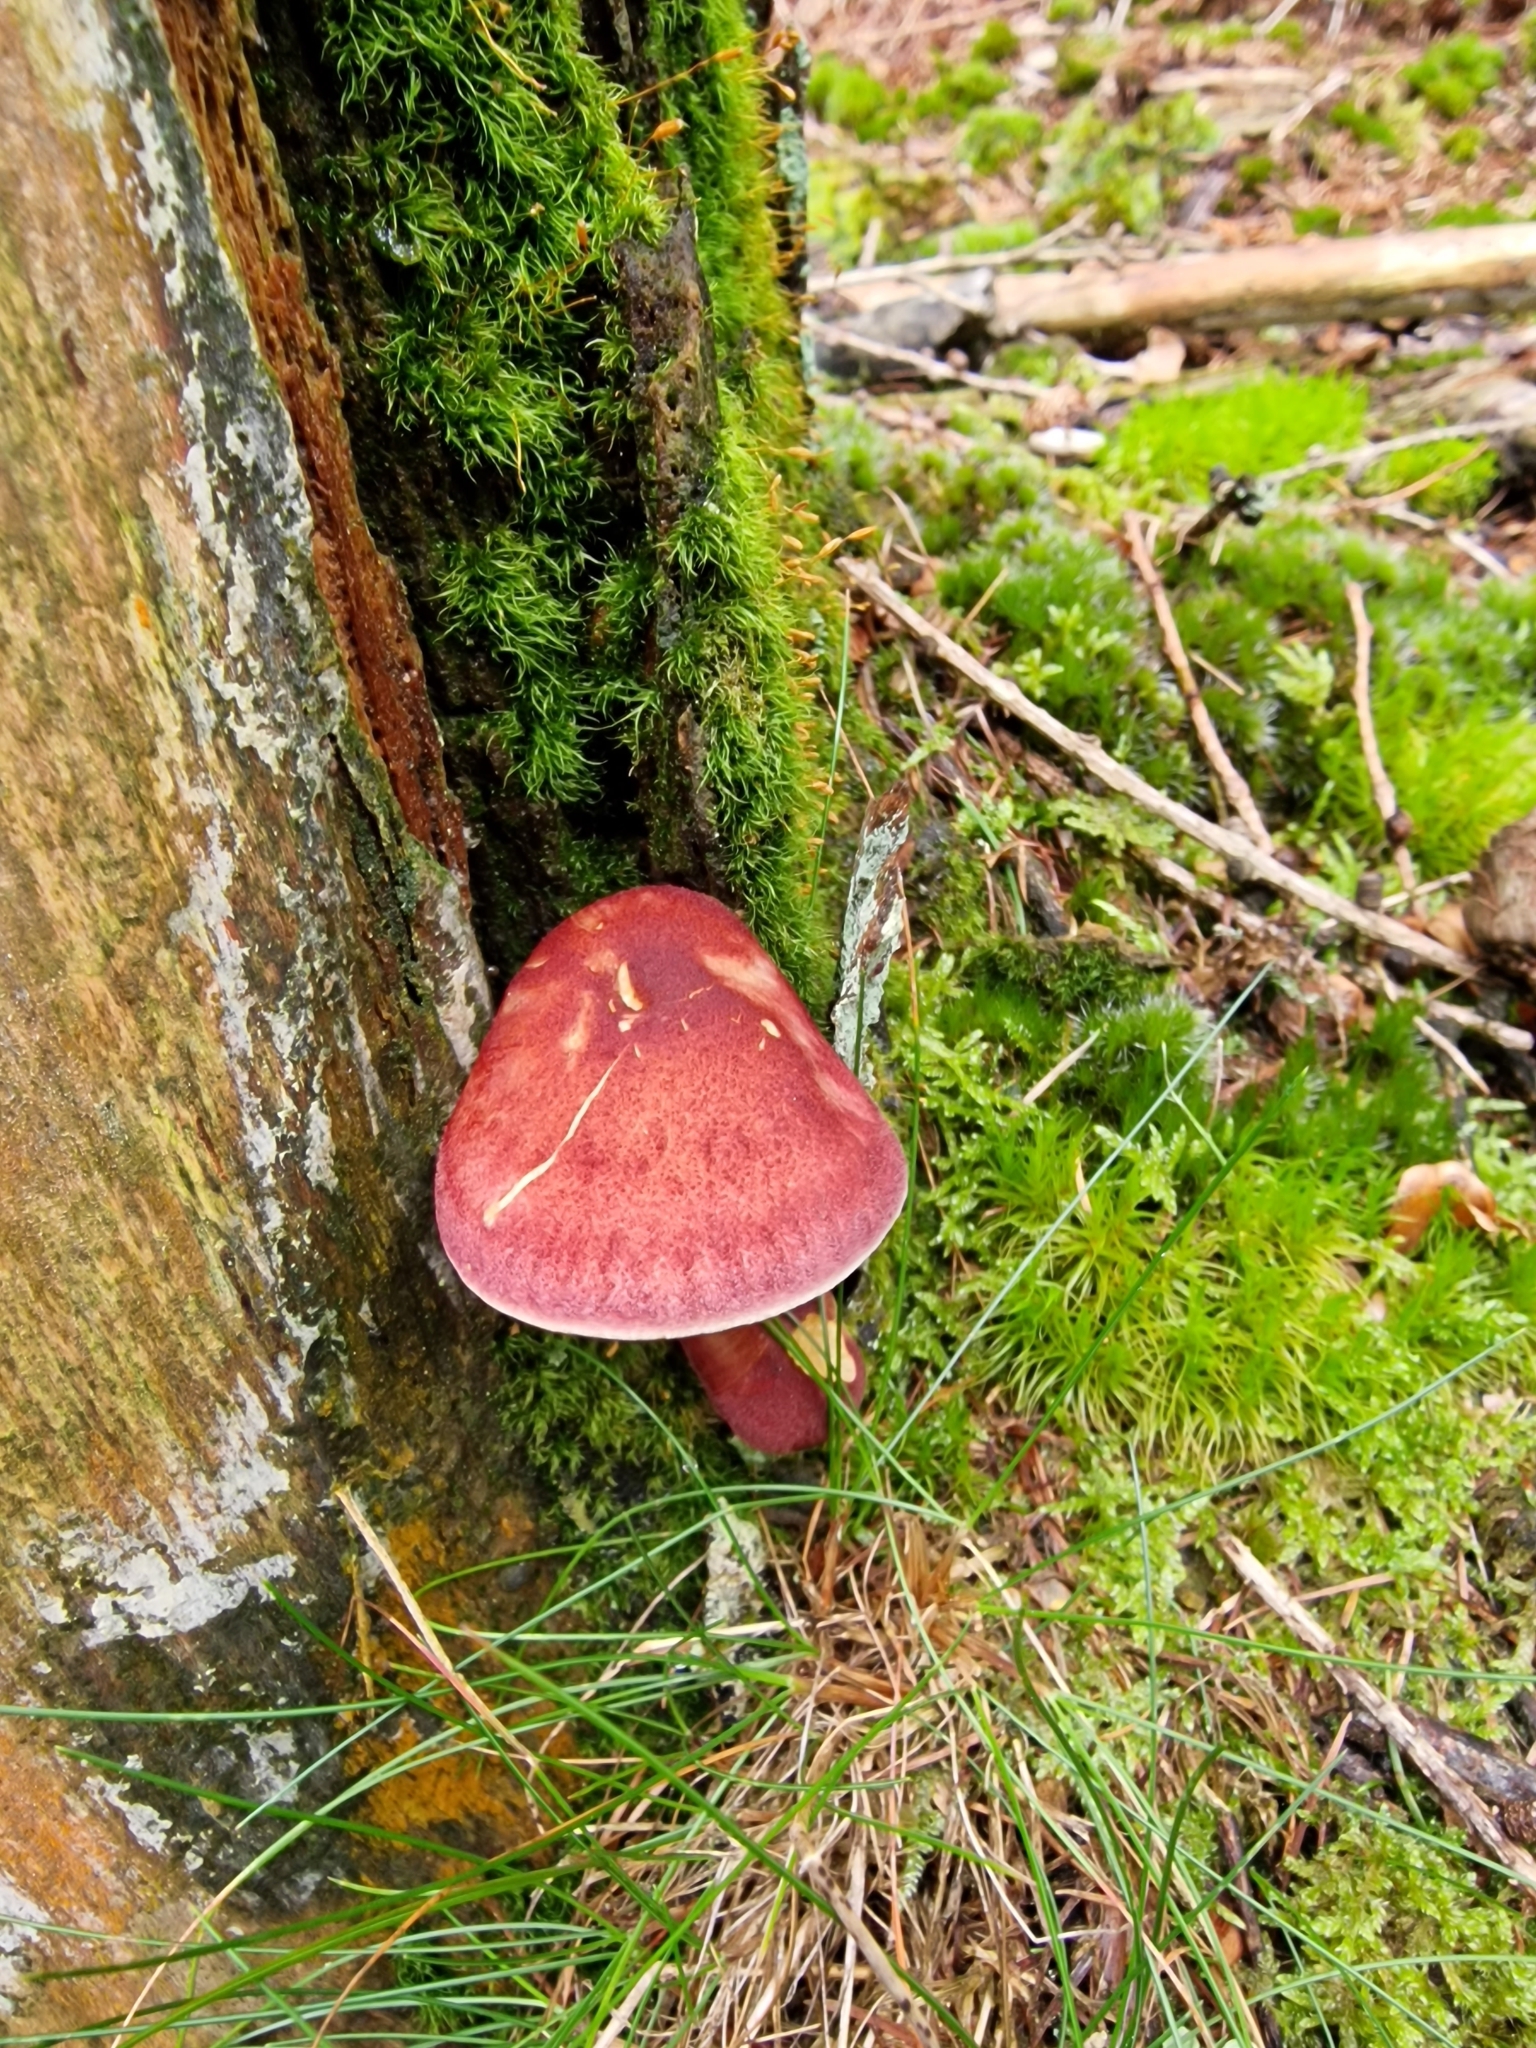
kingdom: Fungi
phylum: Basidiomycota
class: Agaricomycetes
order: Agaricales
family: Tricholomataceae
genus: Tricholomopsis
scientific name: Tricholomopsis rutilans
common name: Plums and custard
